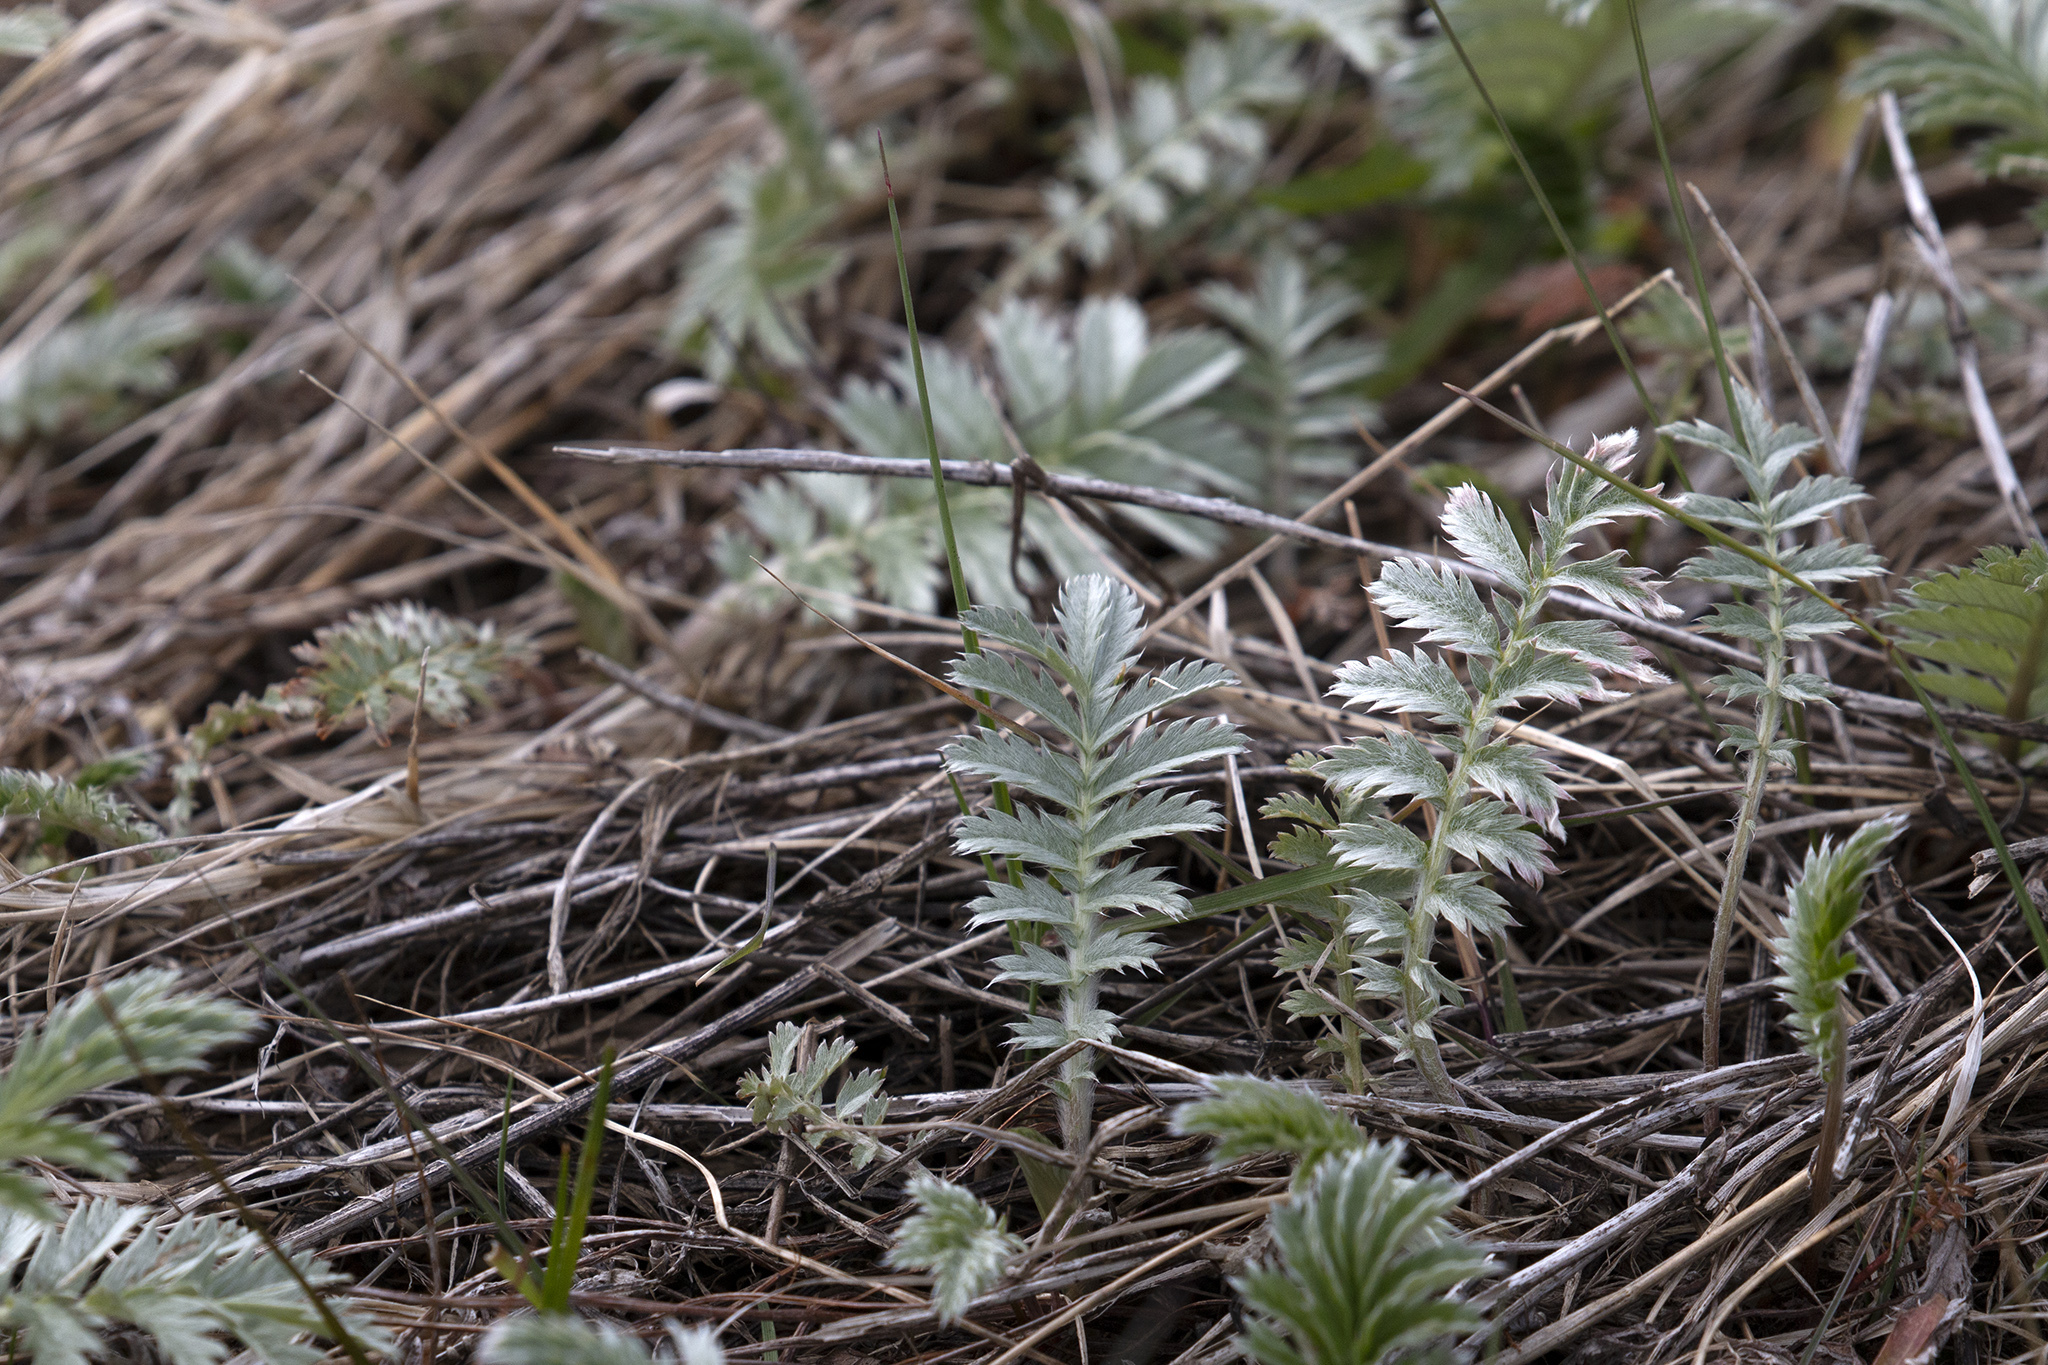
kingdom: Plantae
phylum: Tracheophyta
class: Magnoliopsida
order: Rosales
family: Rosaceae
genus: Argentina
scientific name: Argentina anserina
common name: Common silverweed
